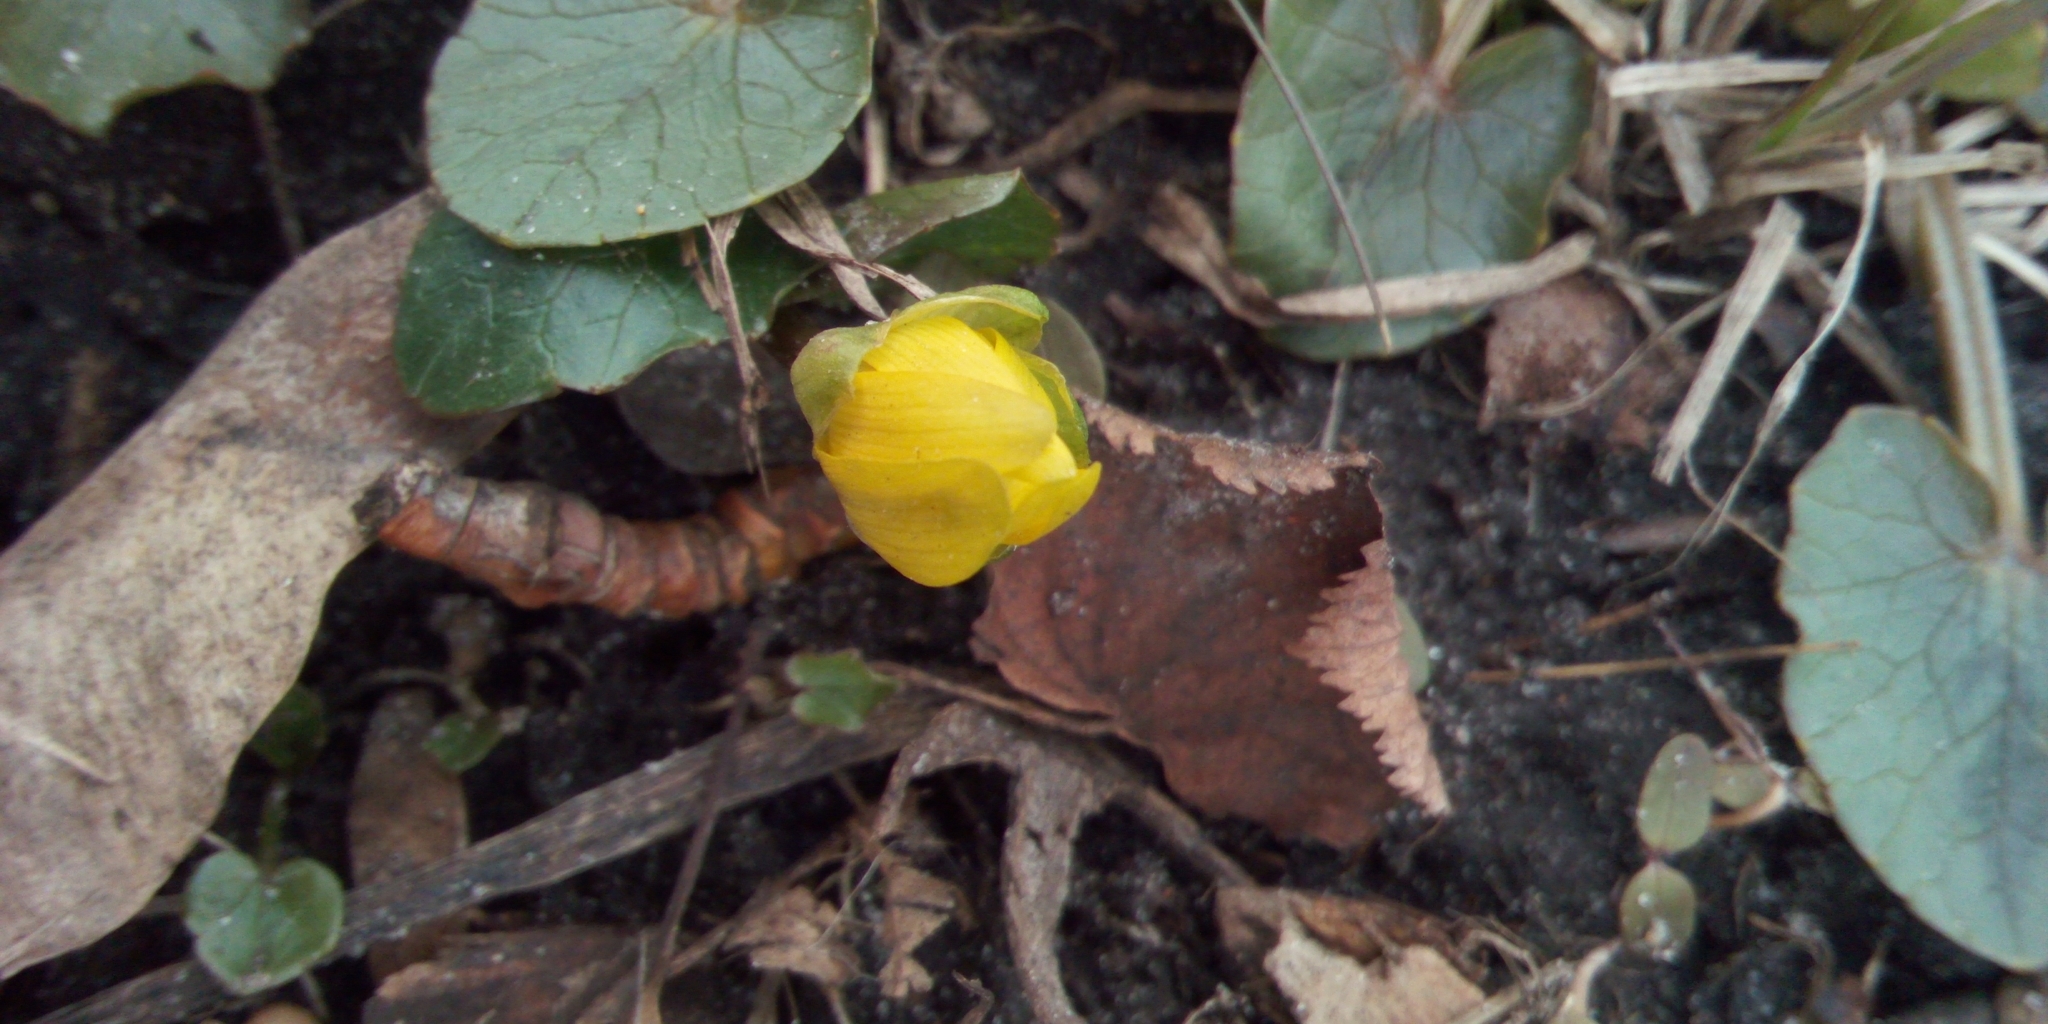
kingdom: Plantae
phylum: Tracheophyta
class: Magnoliopsida
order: Ranunculales
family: Ranunculaceae
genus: Ficaria
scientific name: Ficaria verna
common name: Lesser celandine
